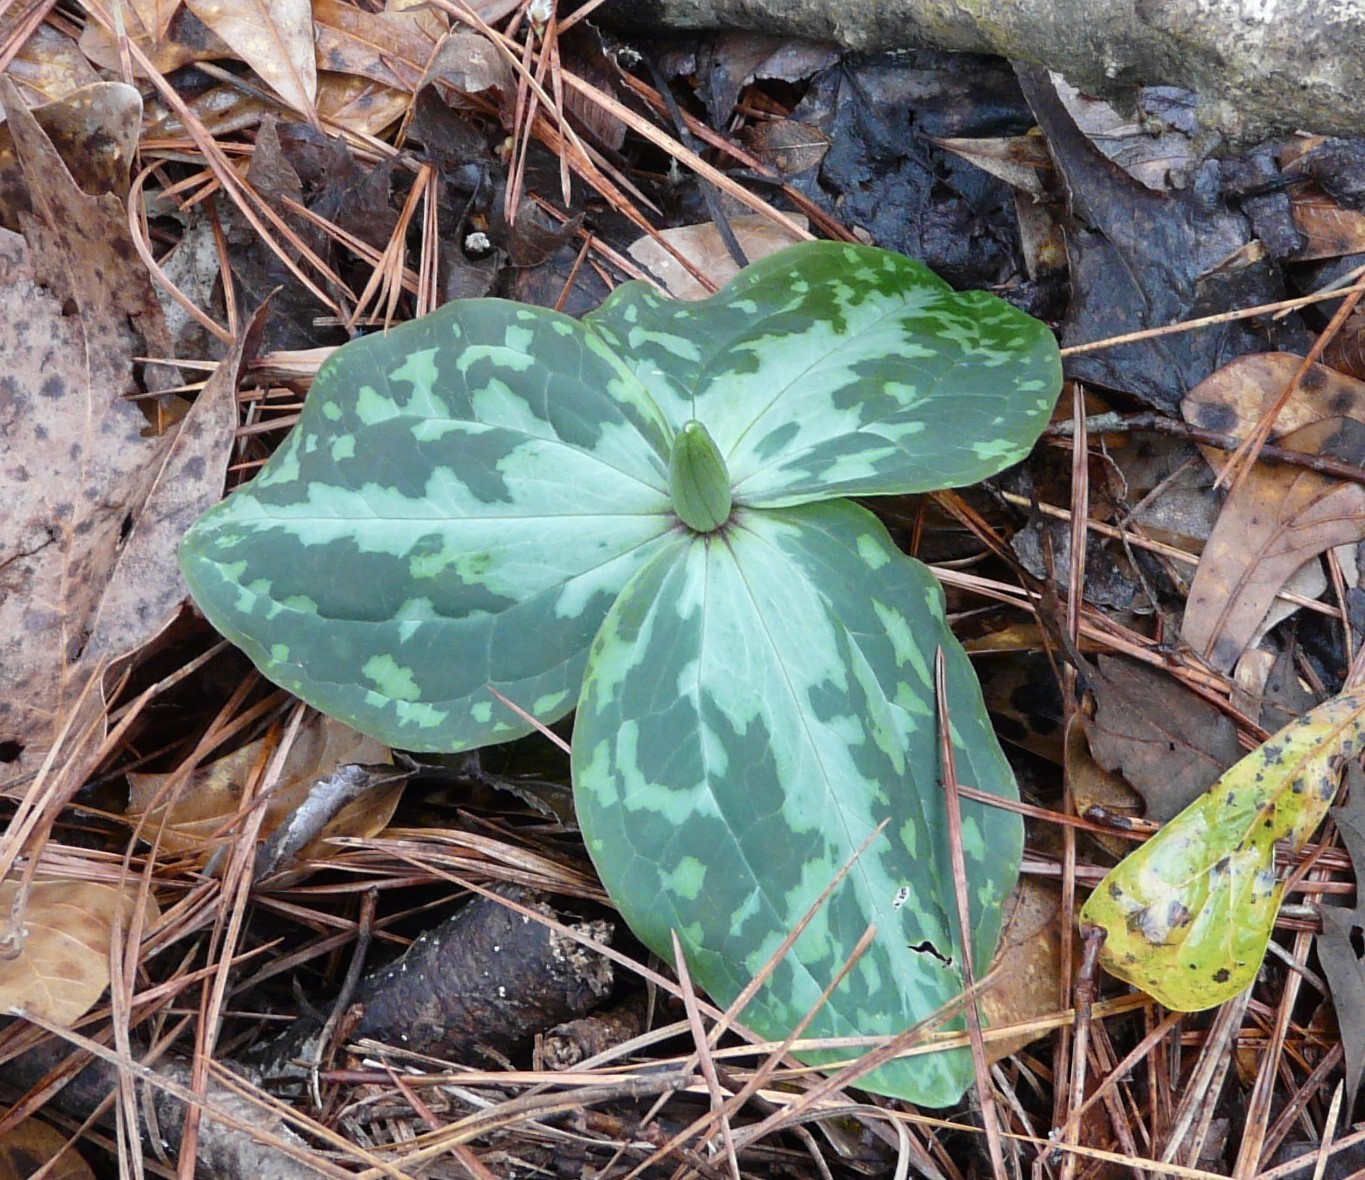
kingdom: Plantae
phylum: Tracheophyta
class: Liliopsida
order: Liliales
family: Melanthiaceae
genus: Trillium
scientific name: Trillium foetidissimum
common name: Mississippi river trillium
